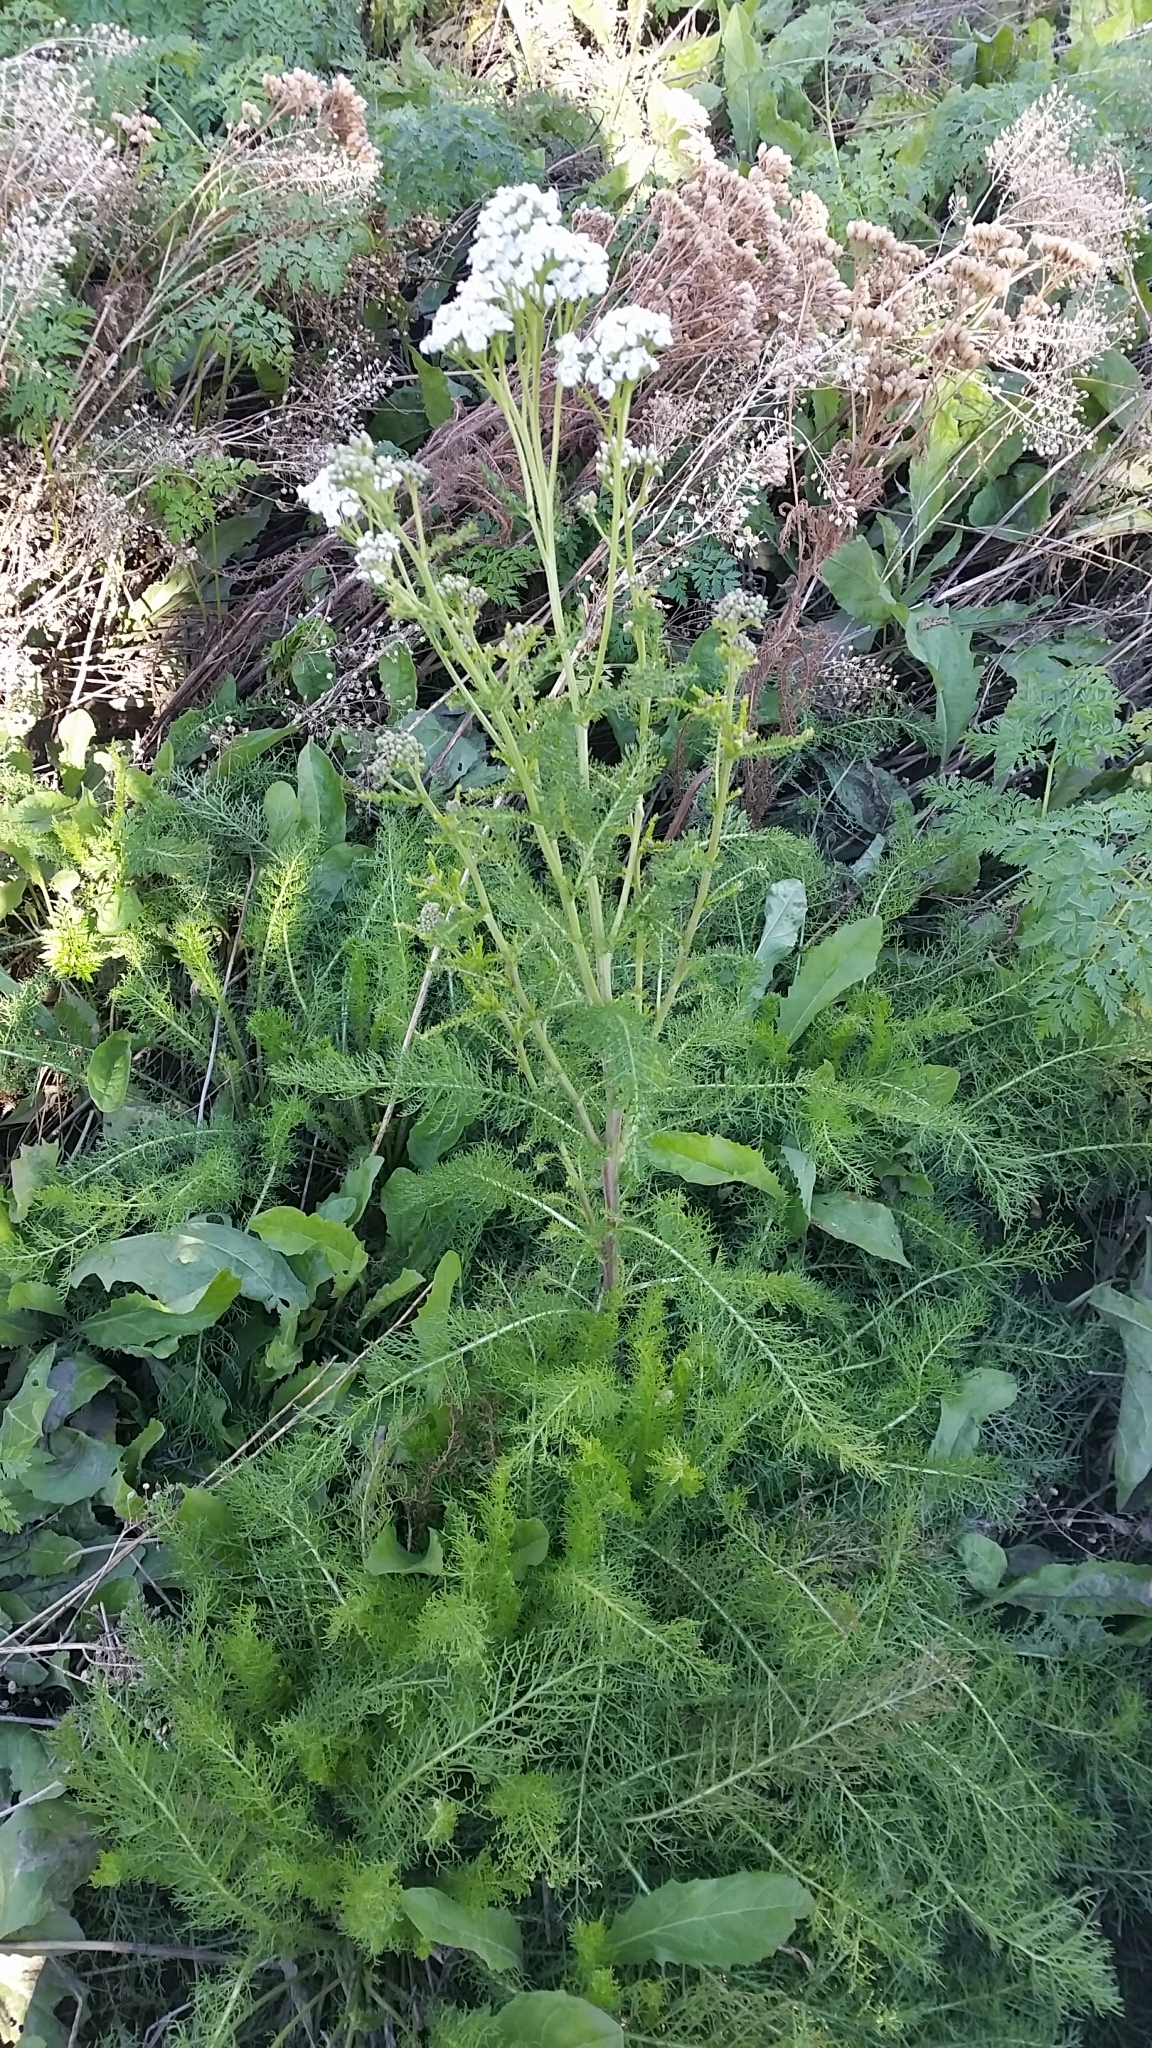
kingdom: Plantae
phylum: Tracheophyta
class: Magnoliopsida
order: Asterales
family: Asteraceae
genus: Achillea
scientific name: Achillea millefolium
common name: Yarrow
